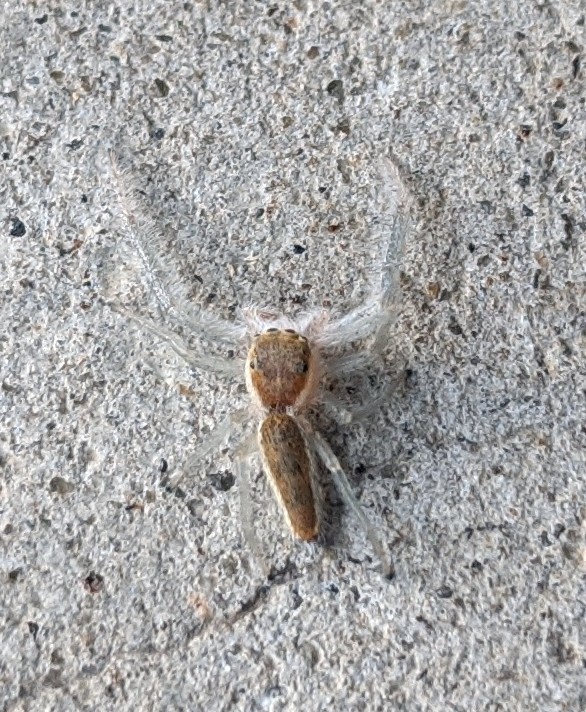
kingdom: Animalia
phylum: Arthropoda
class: Arachnida
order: Araneae
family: Salticidae
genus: Hentzia
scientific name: Hentzia mitrata
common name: White-jawed jumping spider
